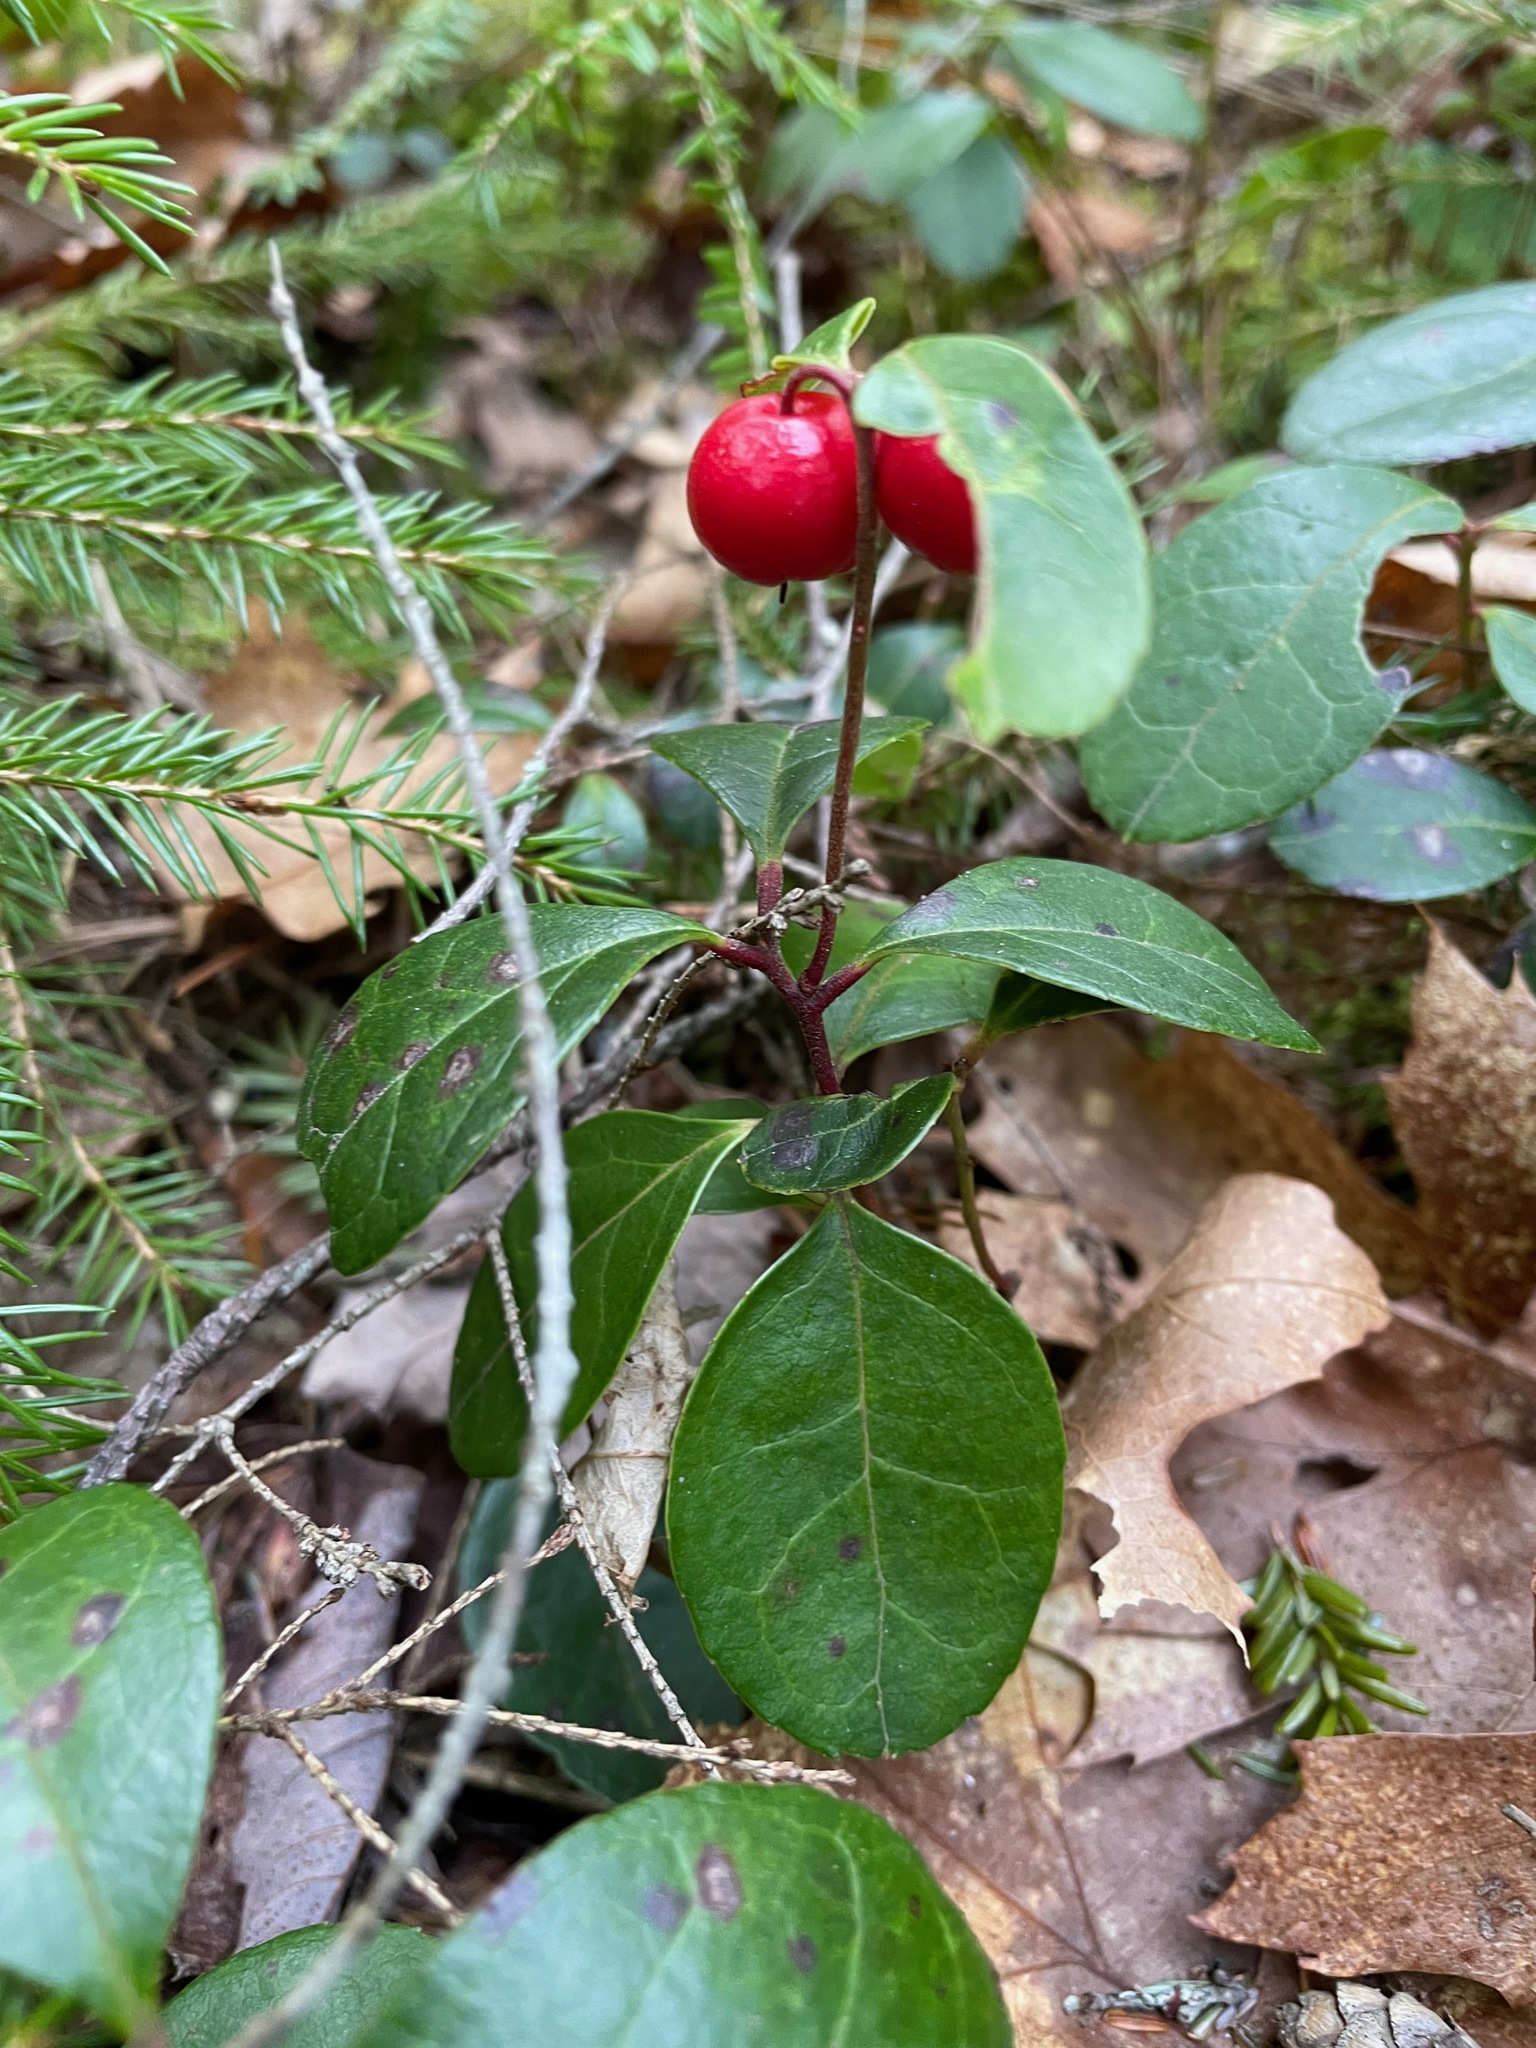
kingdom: Plantae
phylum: Tracheophyta
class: Magnoliopsida
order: Ericales
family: Ericaceae
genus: Gaultheria
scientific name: Gaultheria procumbens
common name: Checkerberry
